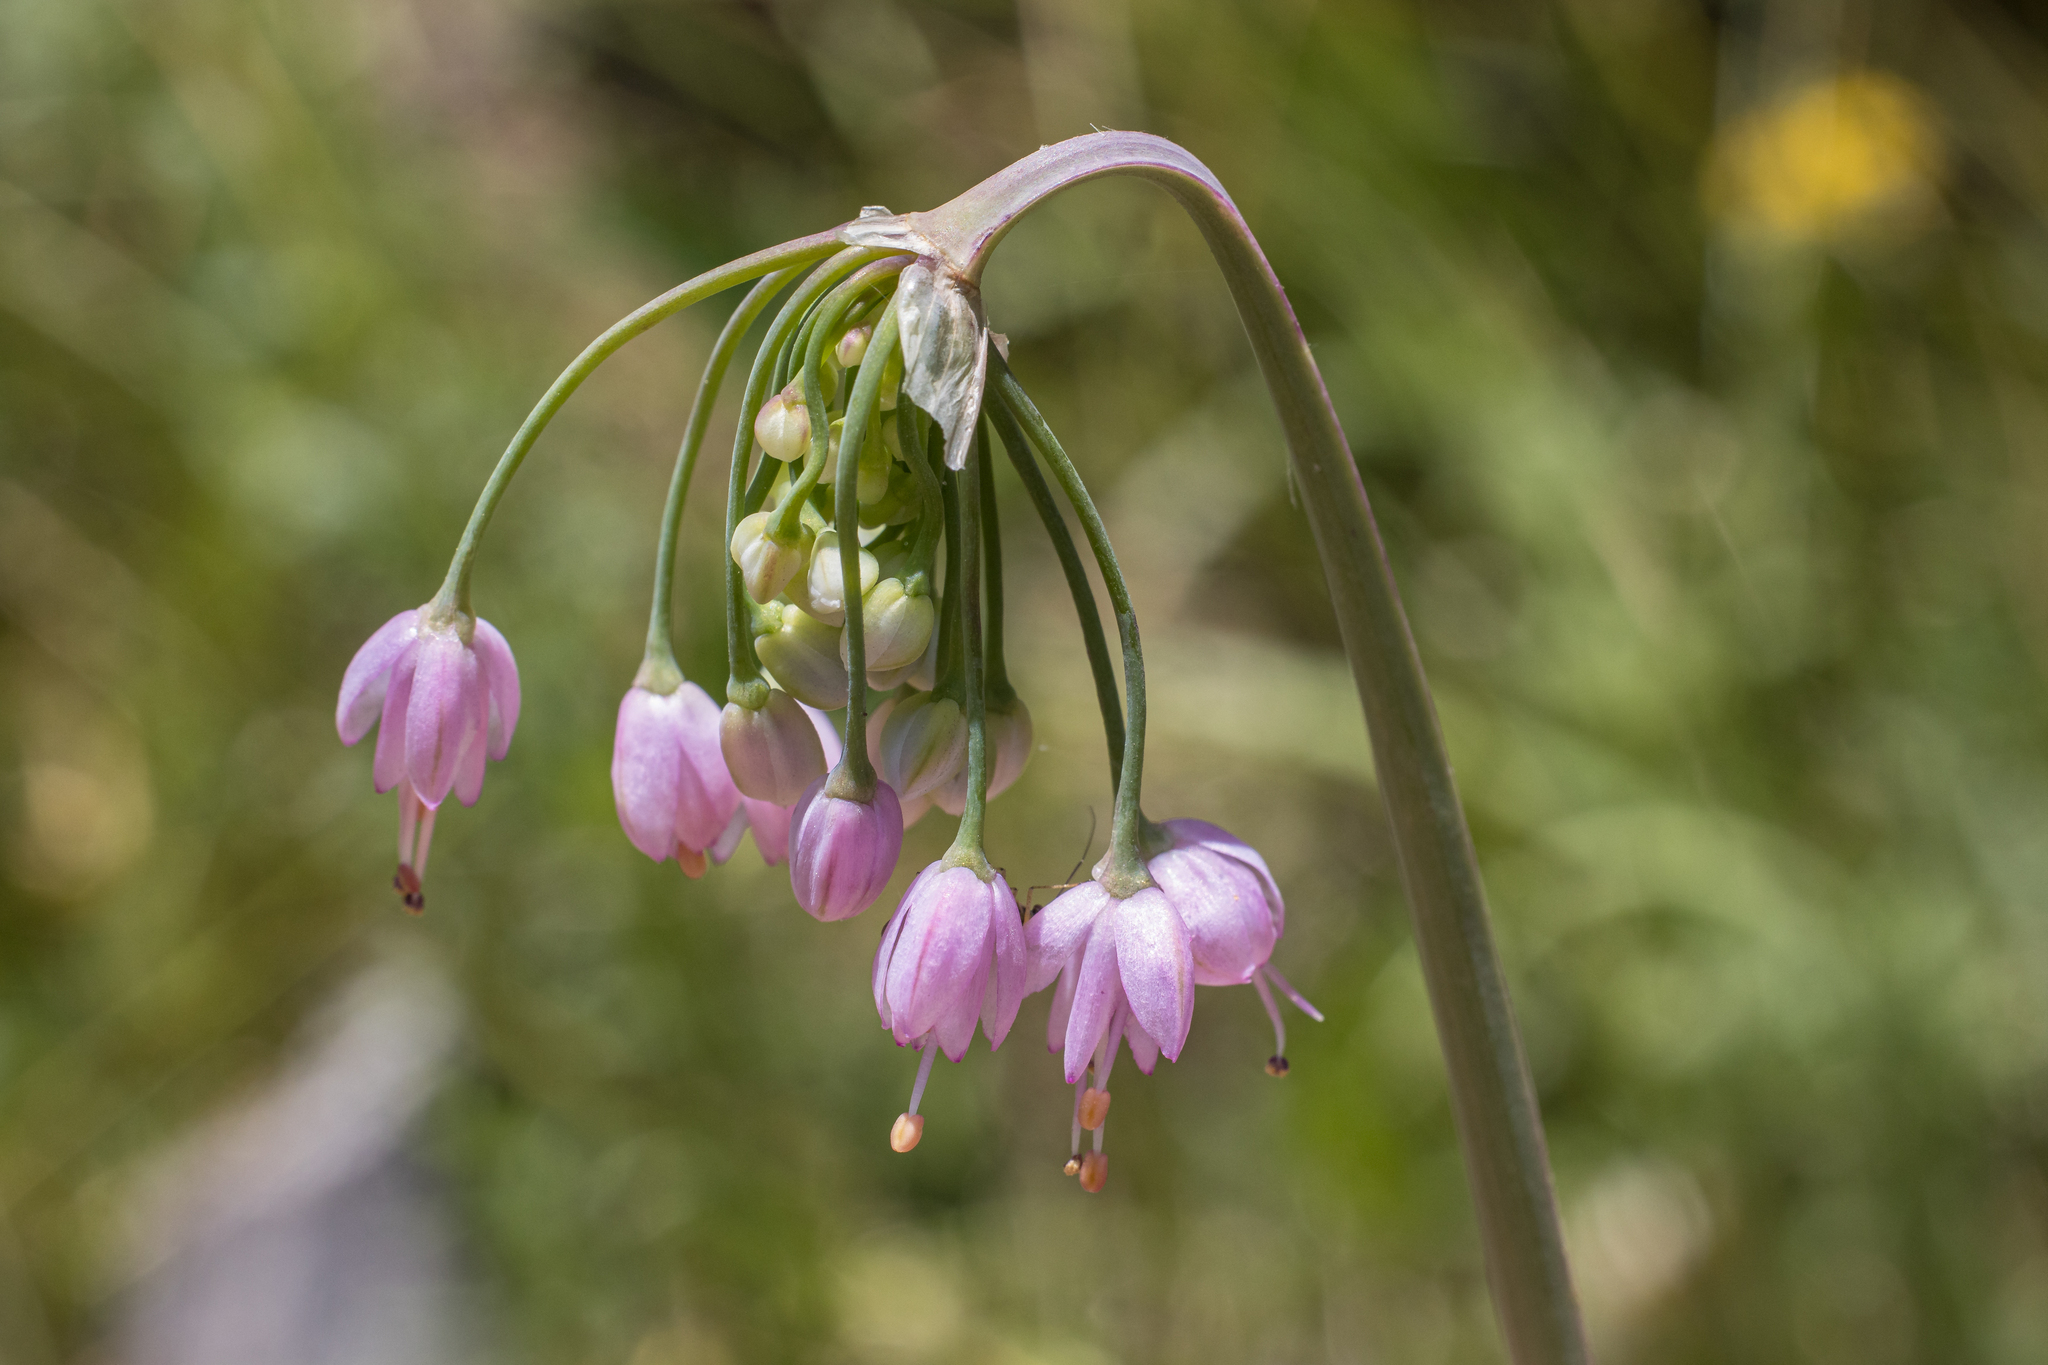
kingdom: Plantae
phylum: Tracheophyta
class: Liliopsida
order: Asparagales
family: Amaryllidaceae
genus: Allium
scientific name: Allium cernuum
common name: Nodding onion
